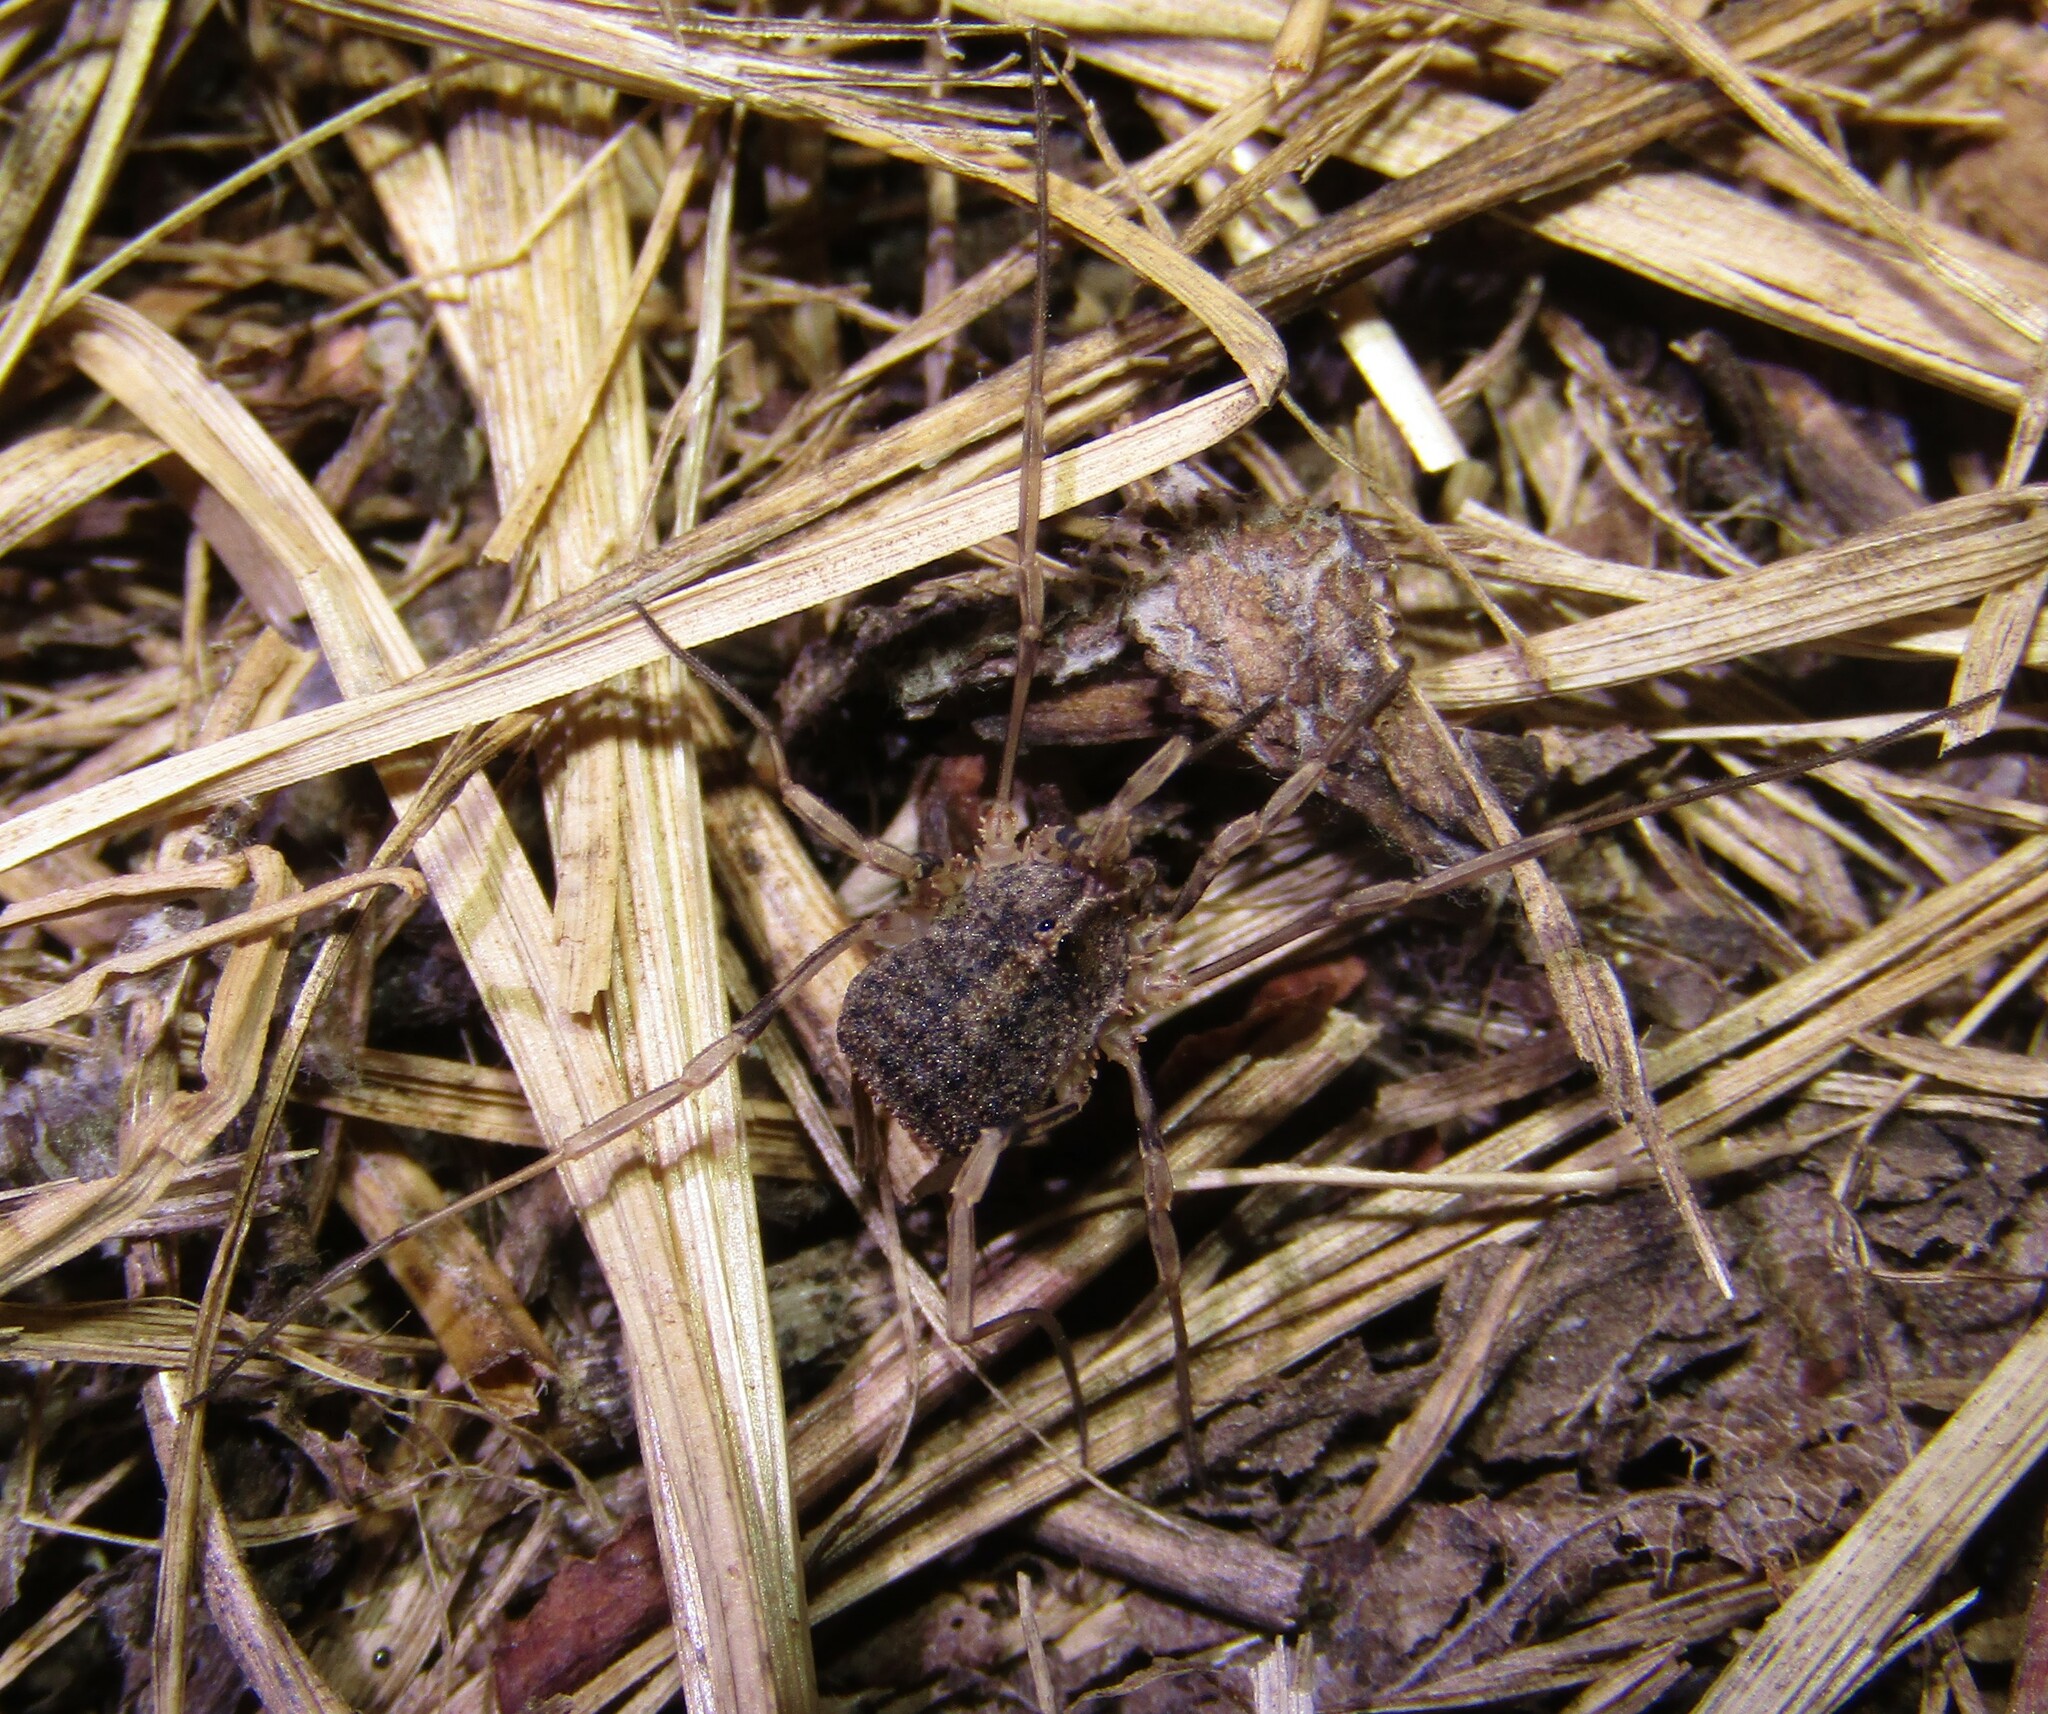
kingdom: Animalia
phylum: Arthropoda
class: Arachnida
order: Opiliones
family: Phalangiidae
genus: Odiellus
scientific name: Odiellus lendlii
